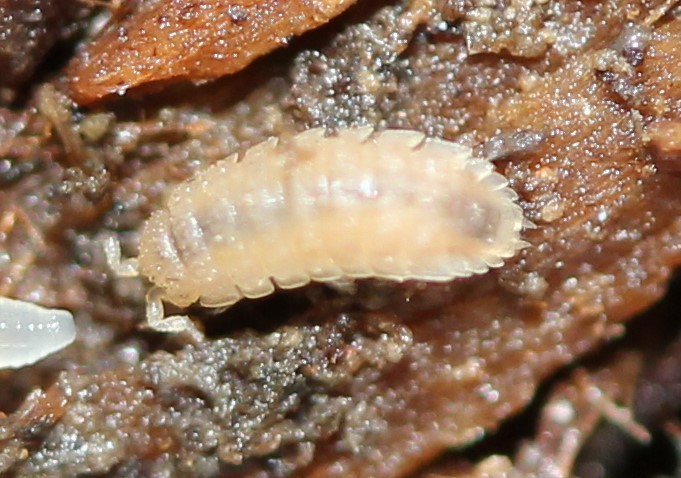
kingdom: Animalia
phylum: Arthropoda
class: Malacostraca
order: Isopoda
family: Trichoniscidae
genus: Haplophthalmus
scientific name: Haplophthalmus danicus
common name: Pillbug
